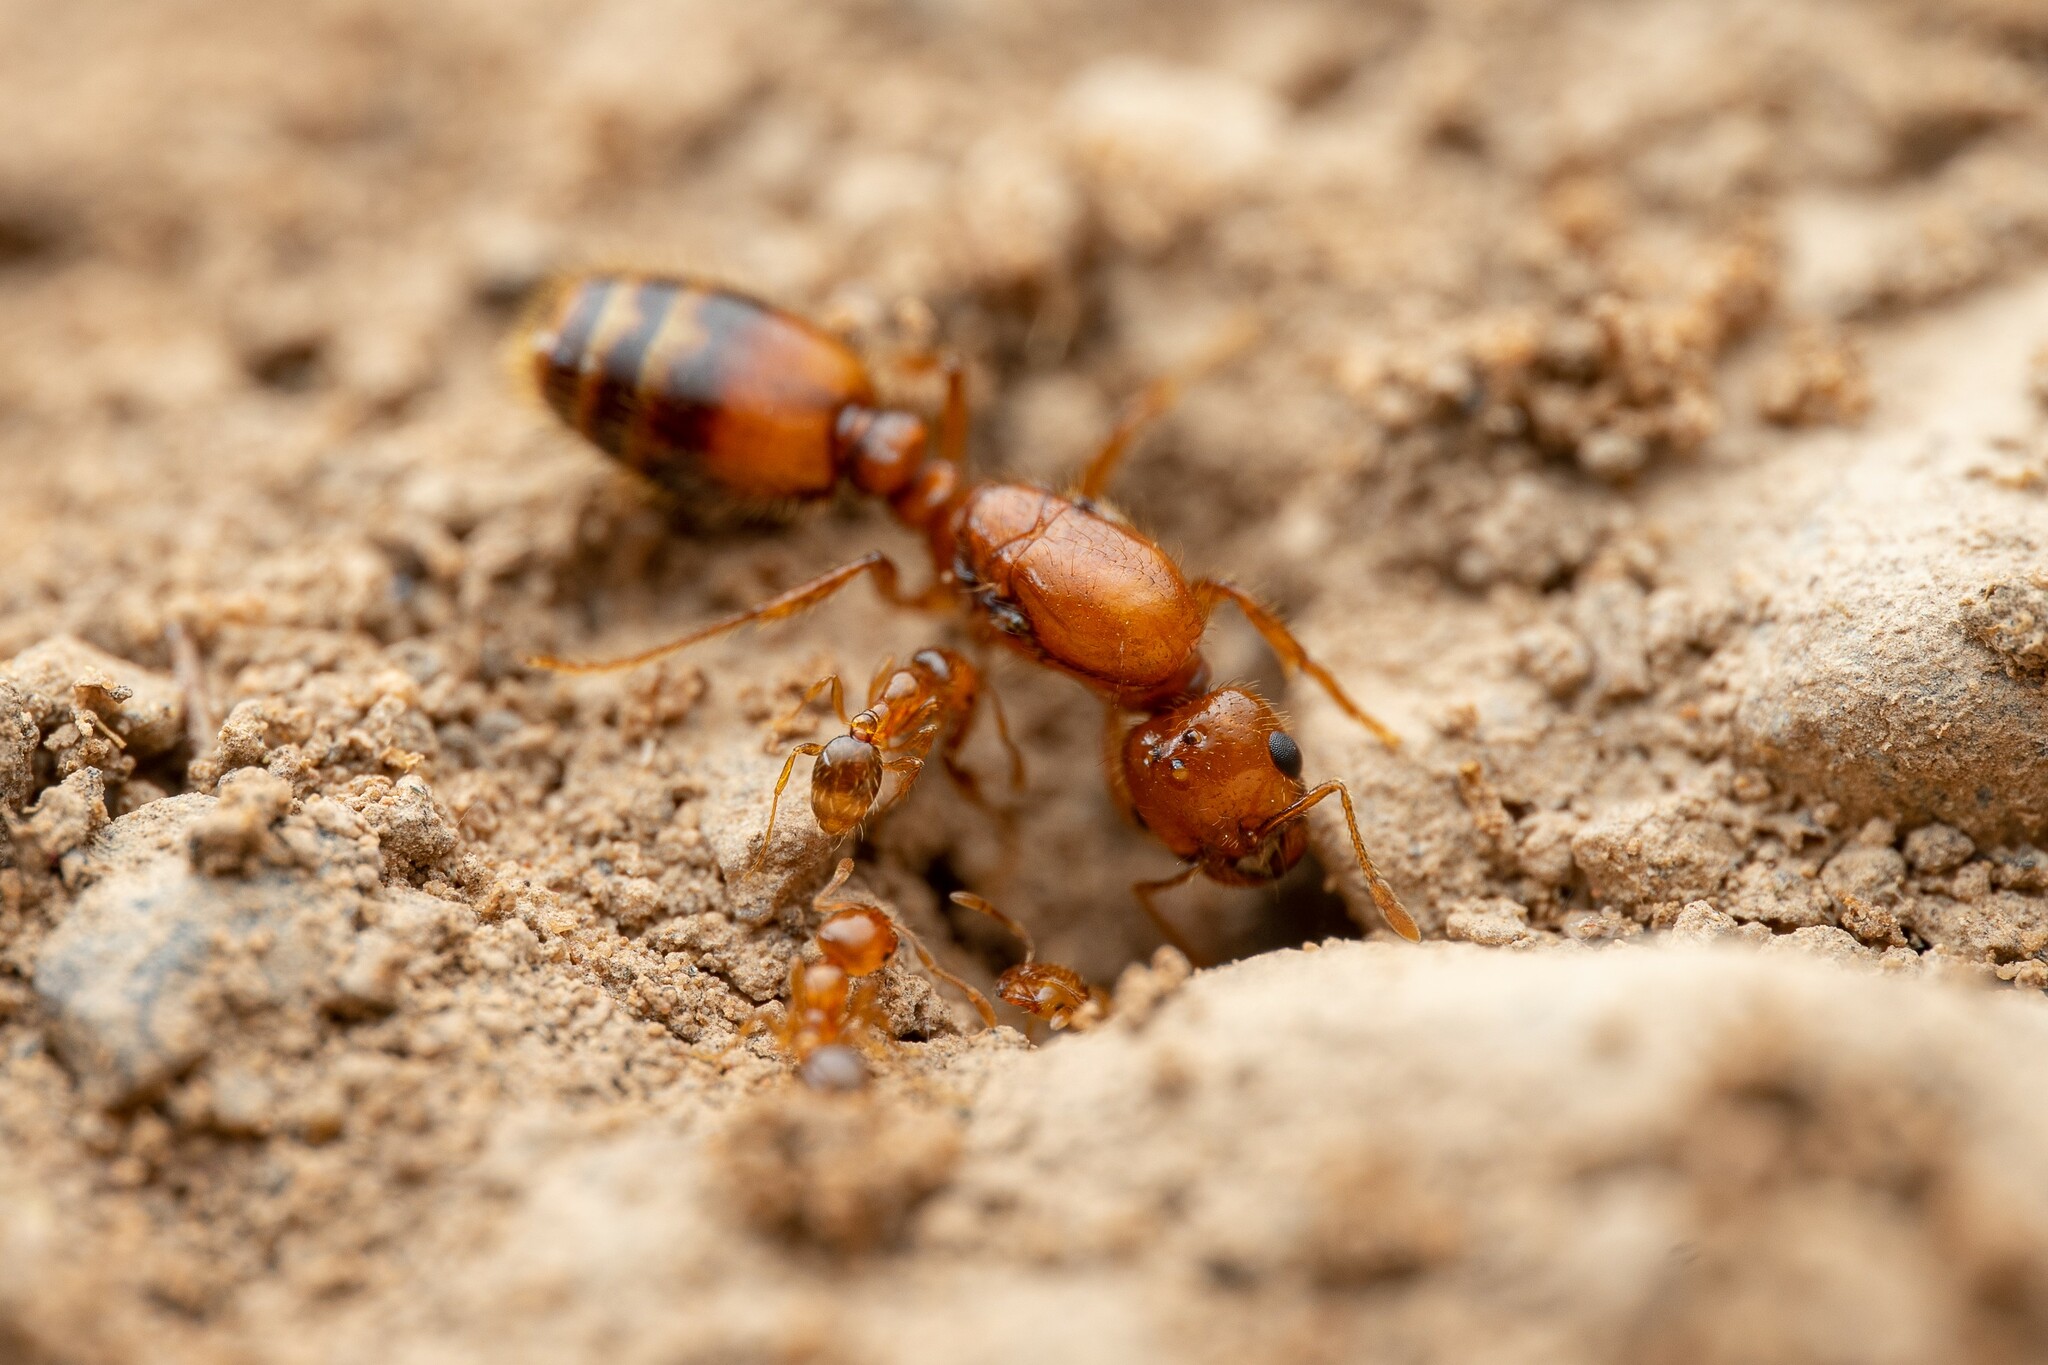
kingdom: Animalia
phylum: Arthropoda
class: Insecta
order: Hymenoptera
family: Formicidae
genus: Solenopsis
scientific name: Solenopsis aurea
